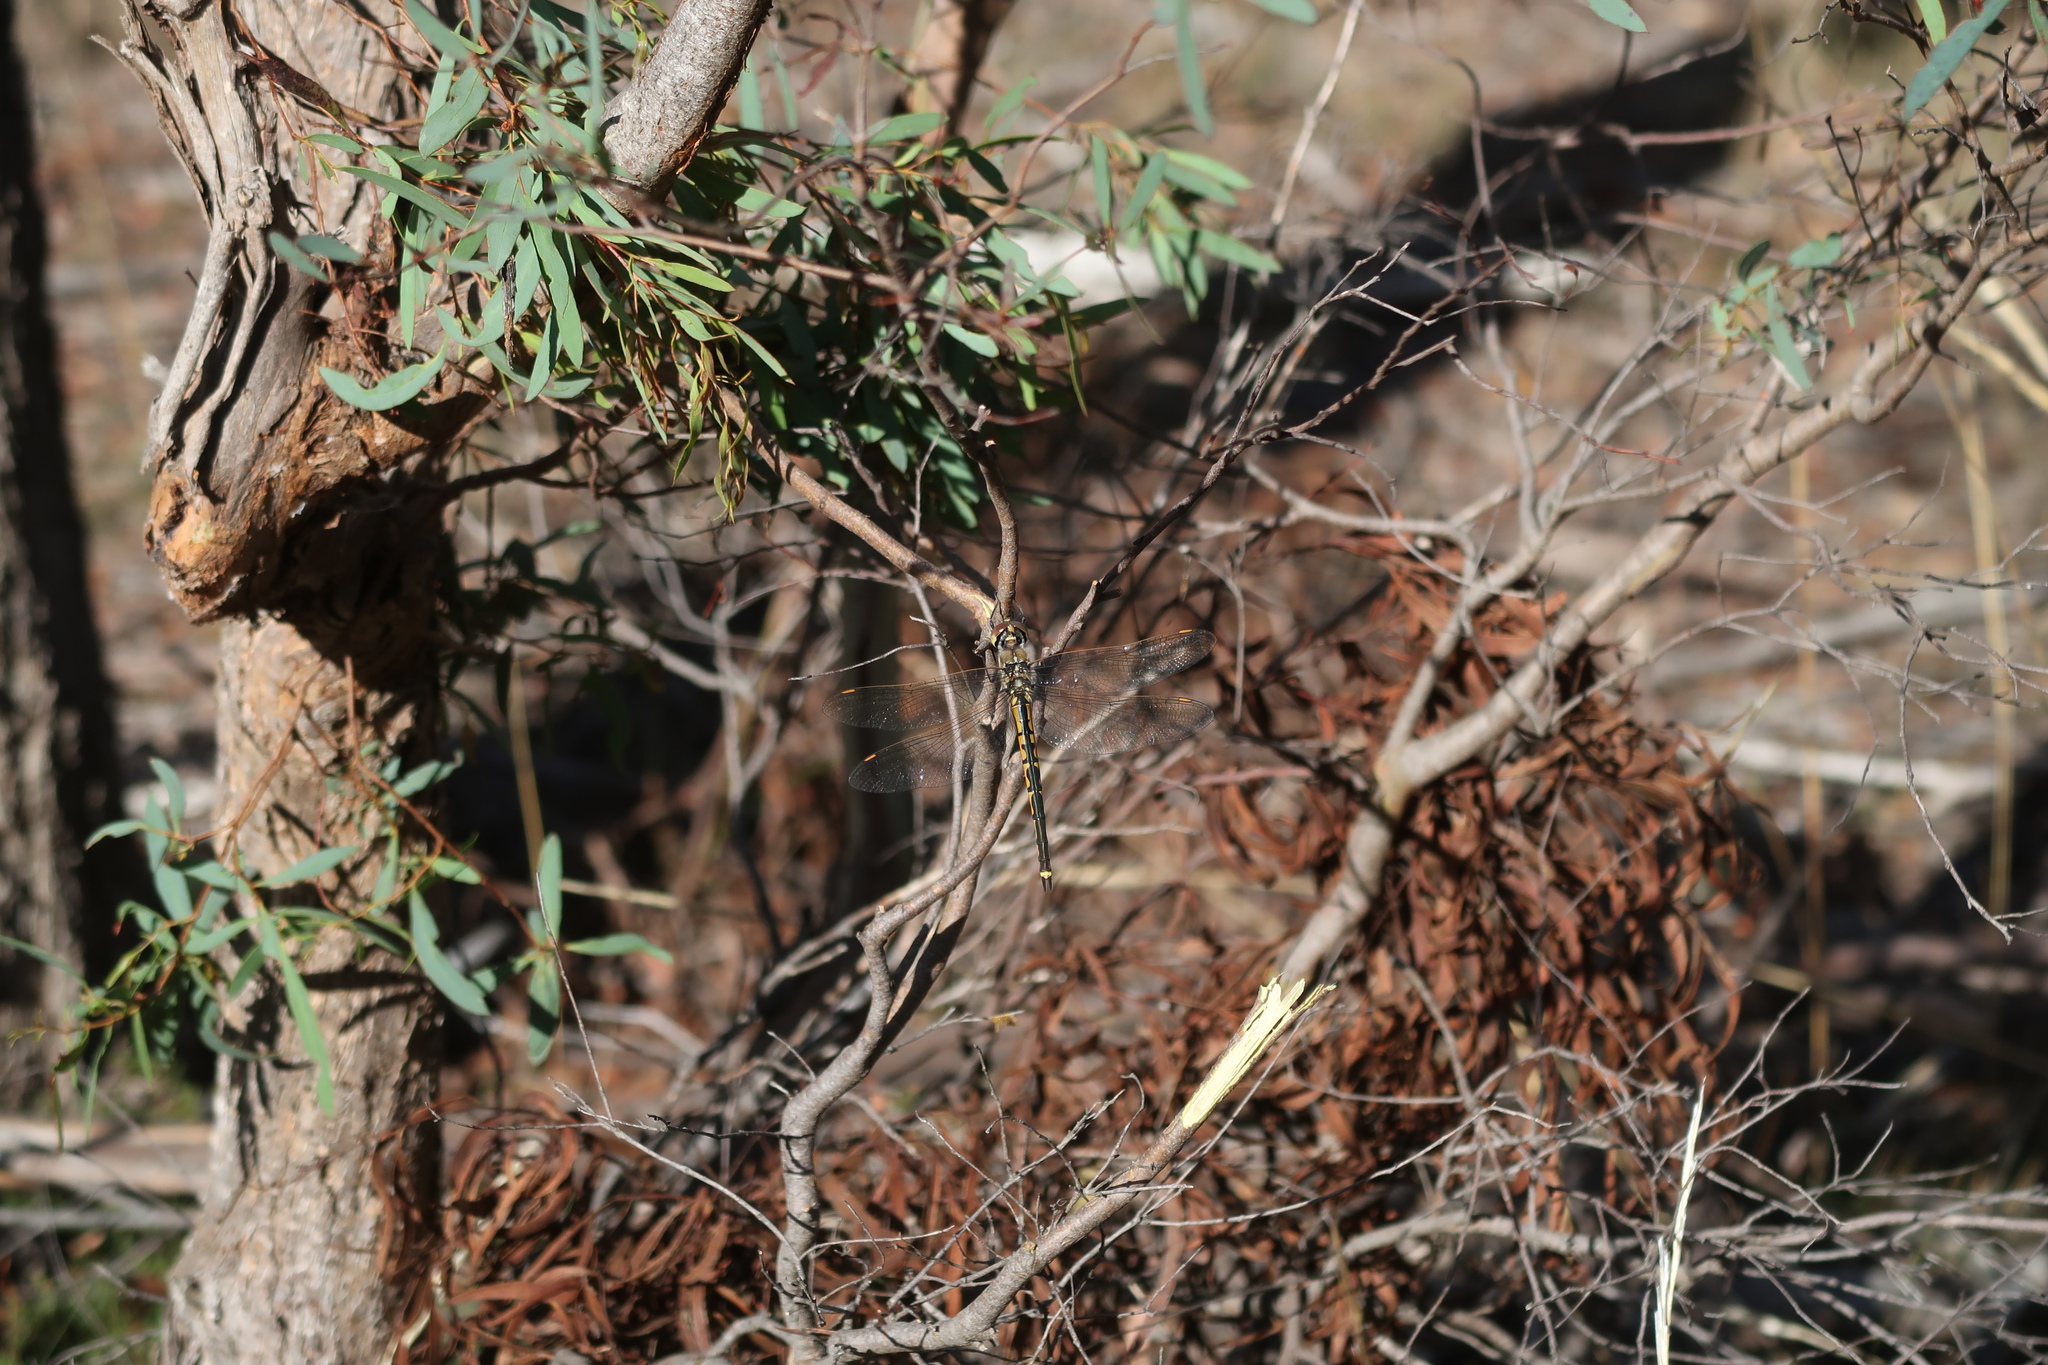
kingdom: Animalia
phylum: Arthropoda
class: Insecta
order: Odonata
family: Corduliidae
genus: Hemicordulia
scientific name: Hemicordulia tau
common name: Tau emerald
